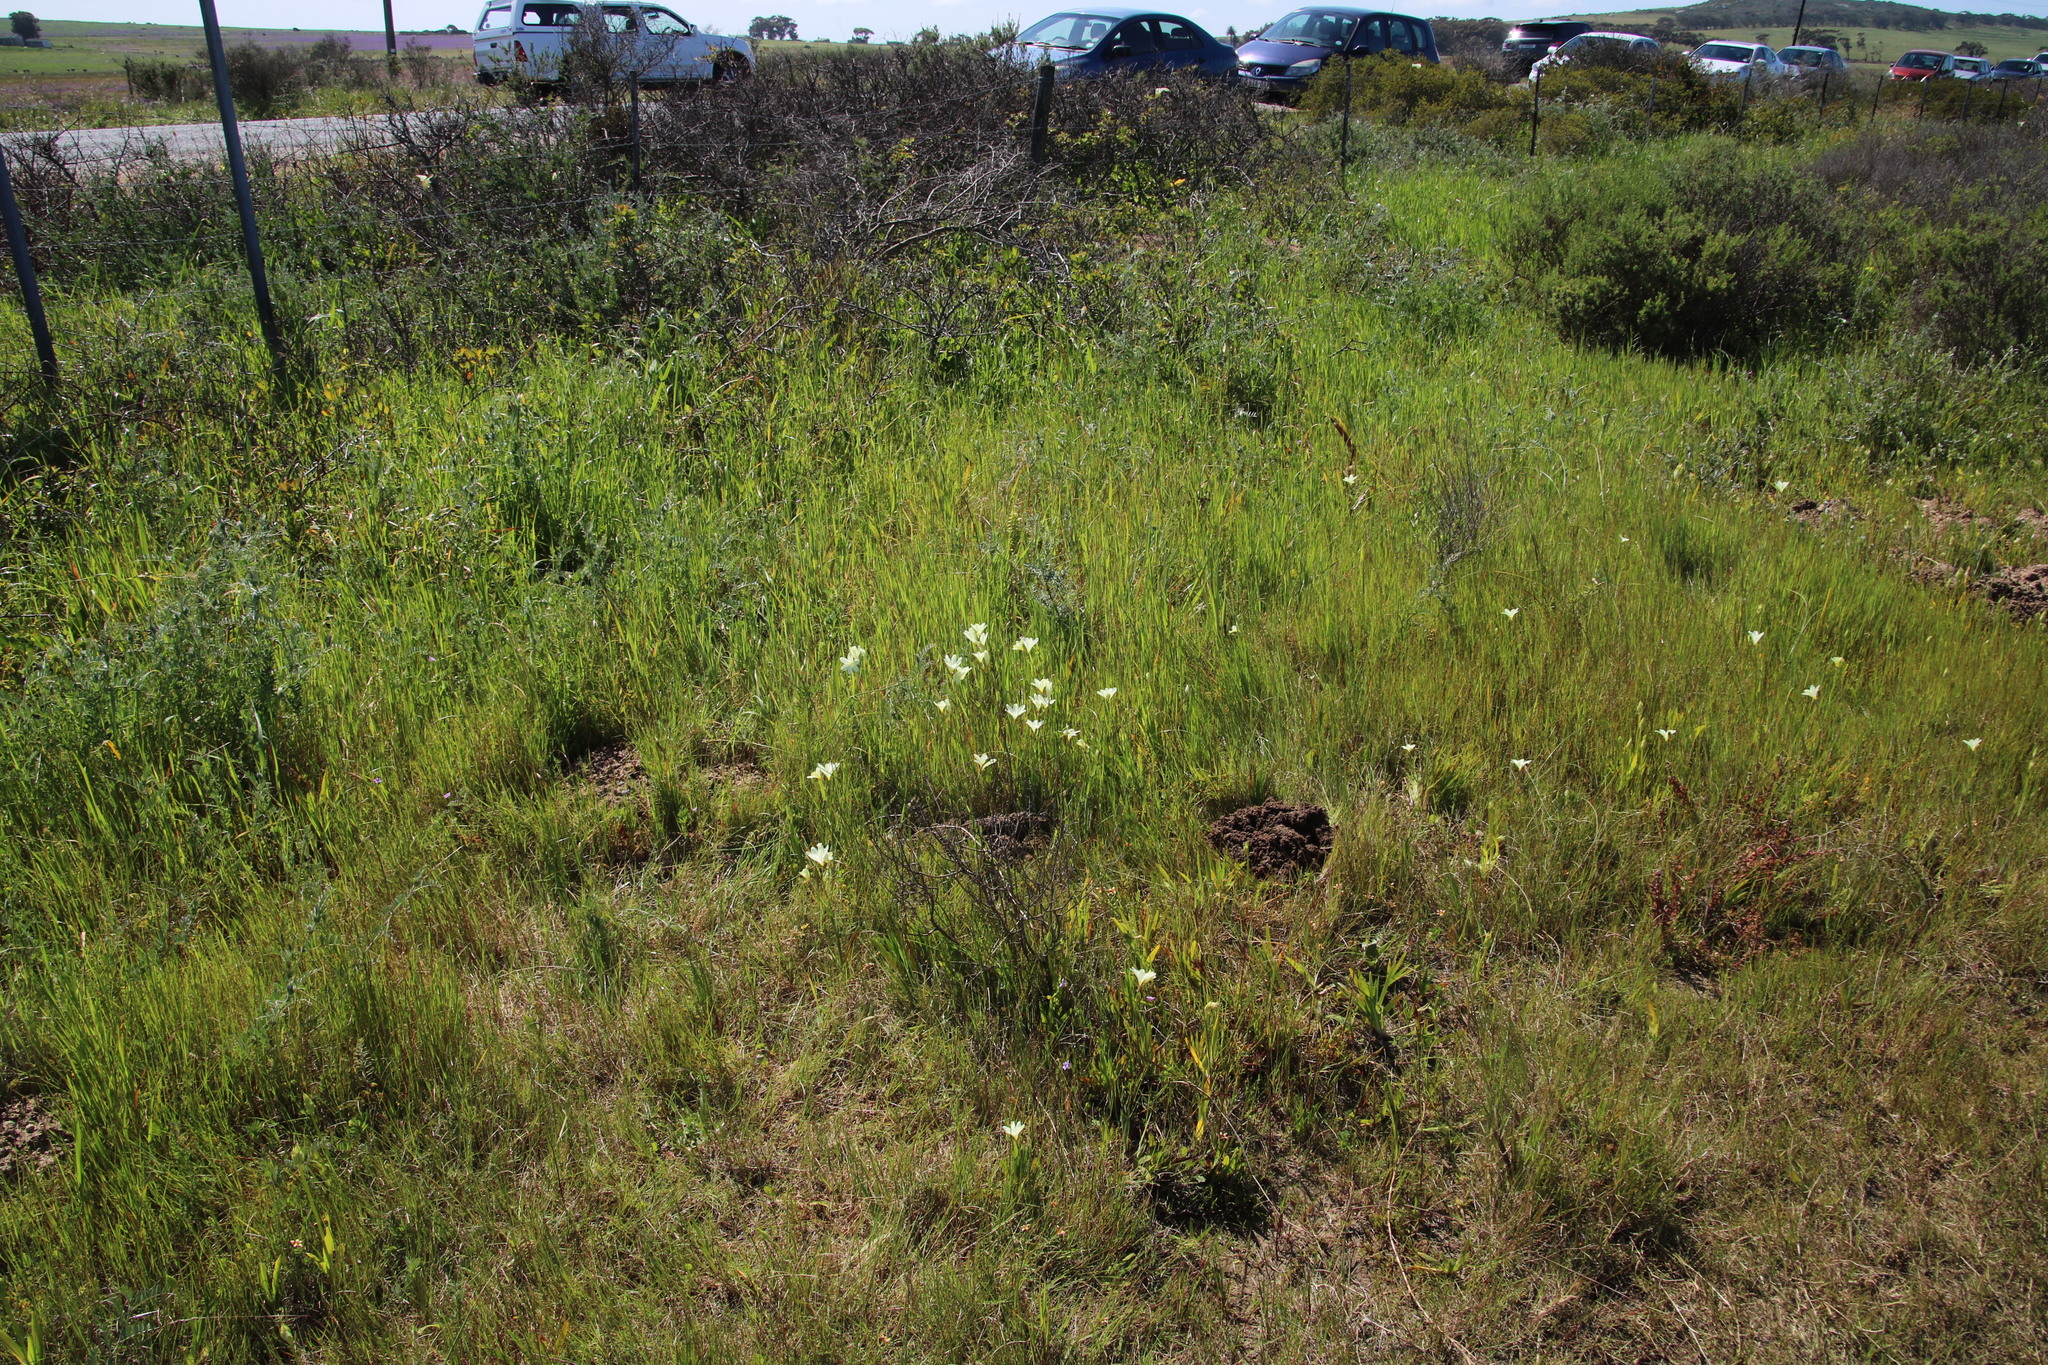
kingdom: Plantae
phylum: Tracheophyta
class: Liliopsida
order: Asparagales
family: Iridaceae
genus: Sparaxis
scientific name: Sparaxis bulbifera
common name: Harlequin-flower
